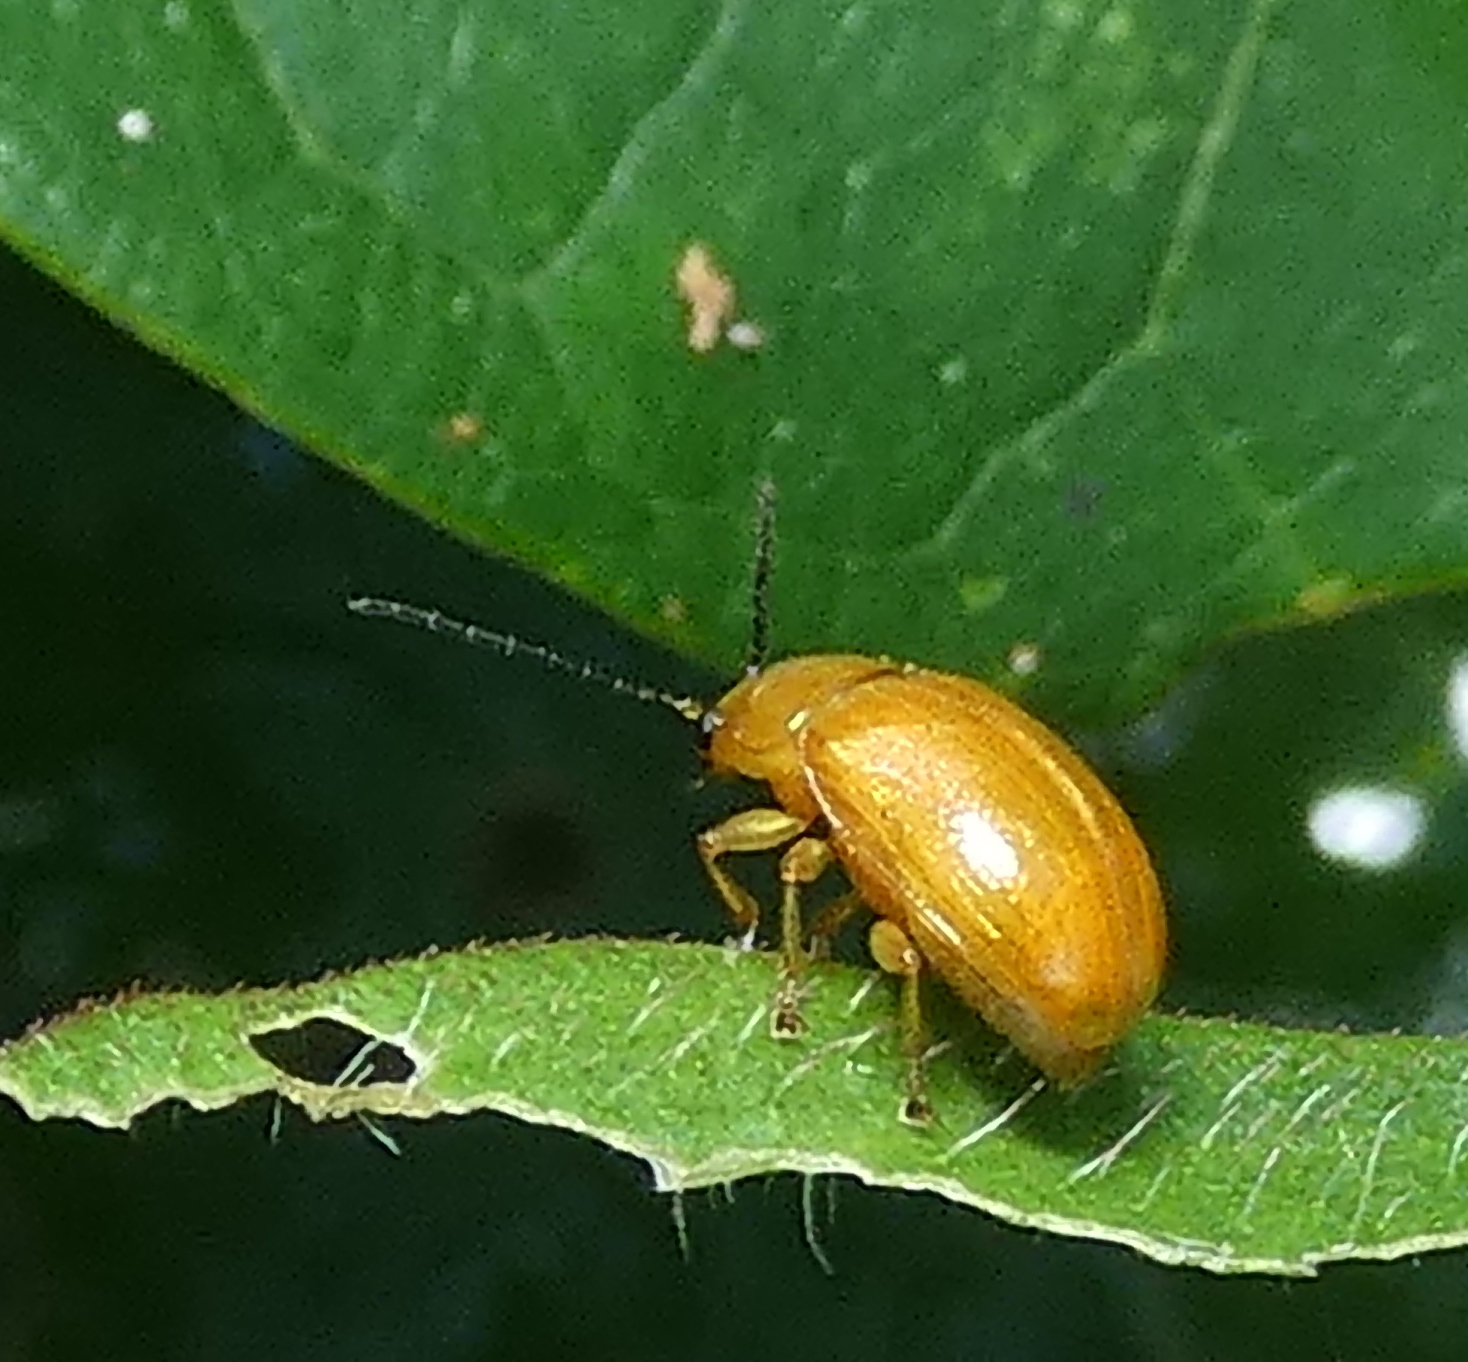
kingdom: Animalia
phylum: Arthropoda
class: Insecta
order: Coleoptera
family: Chrysomelidae
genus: Anisodera
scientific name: Anisodera ferruginea
